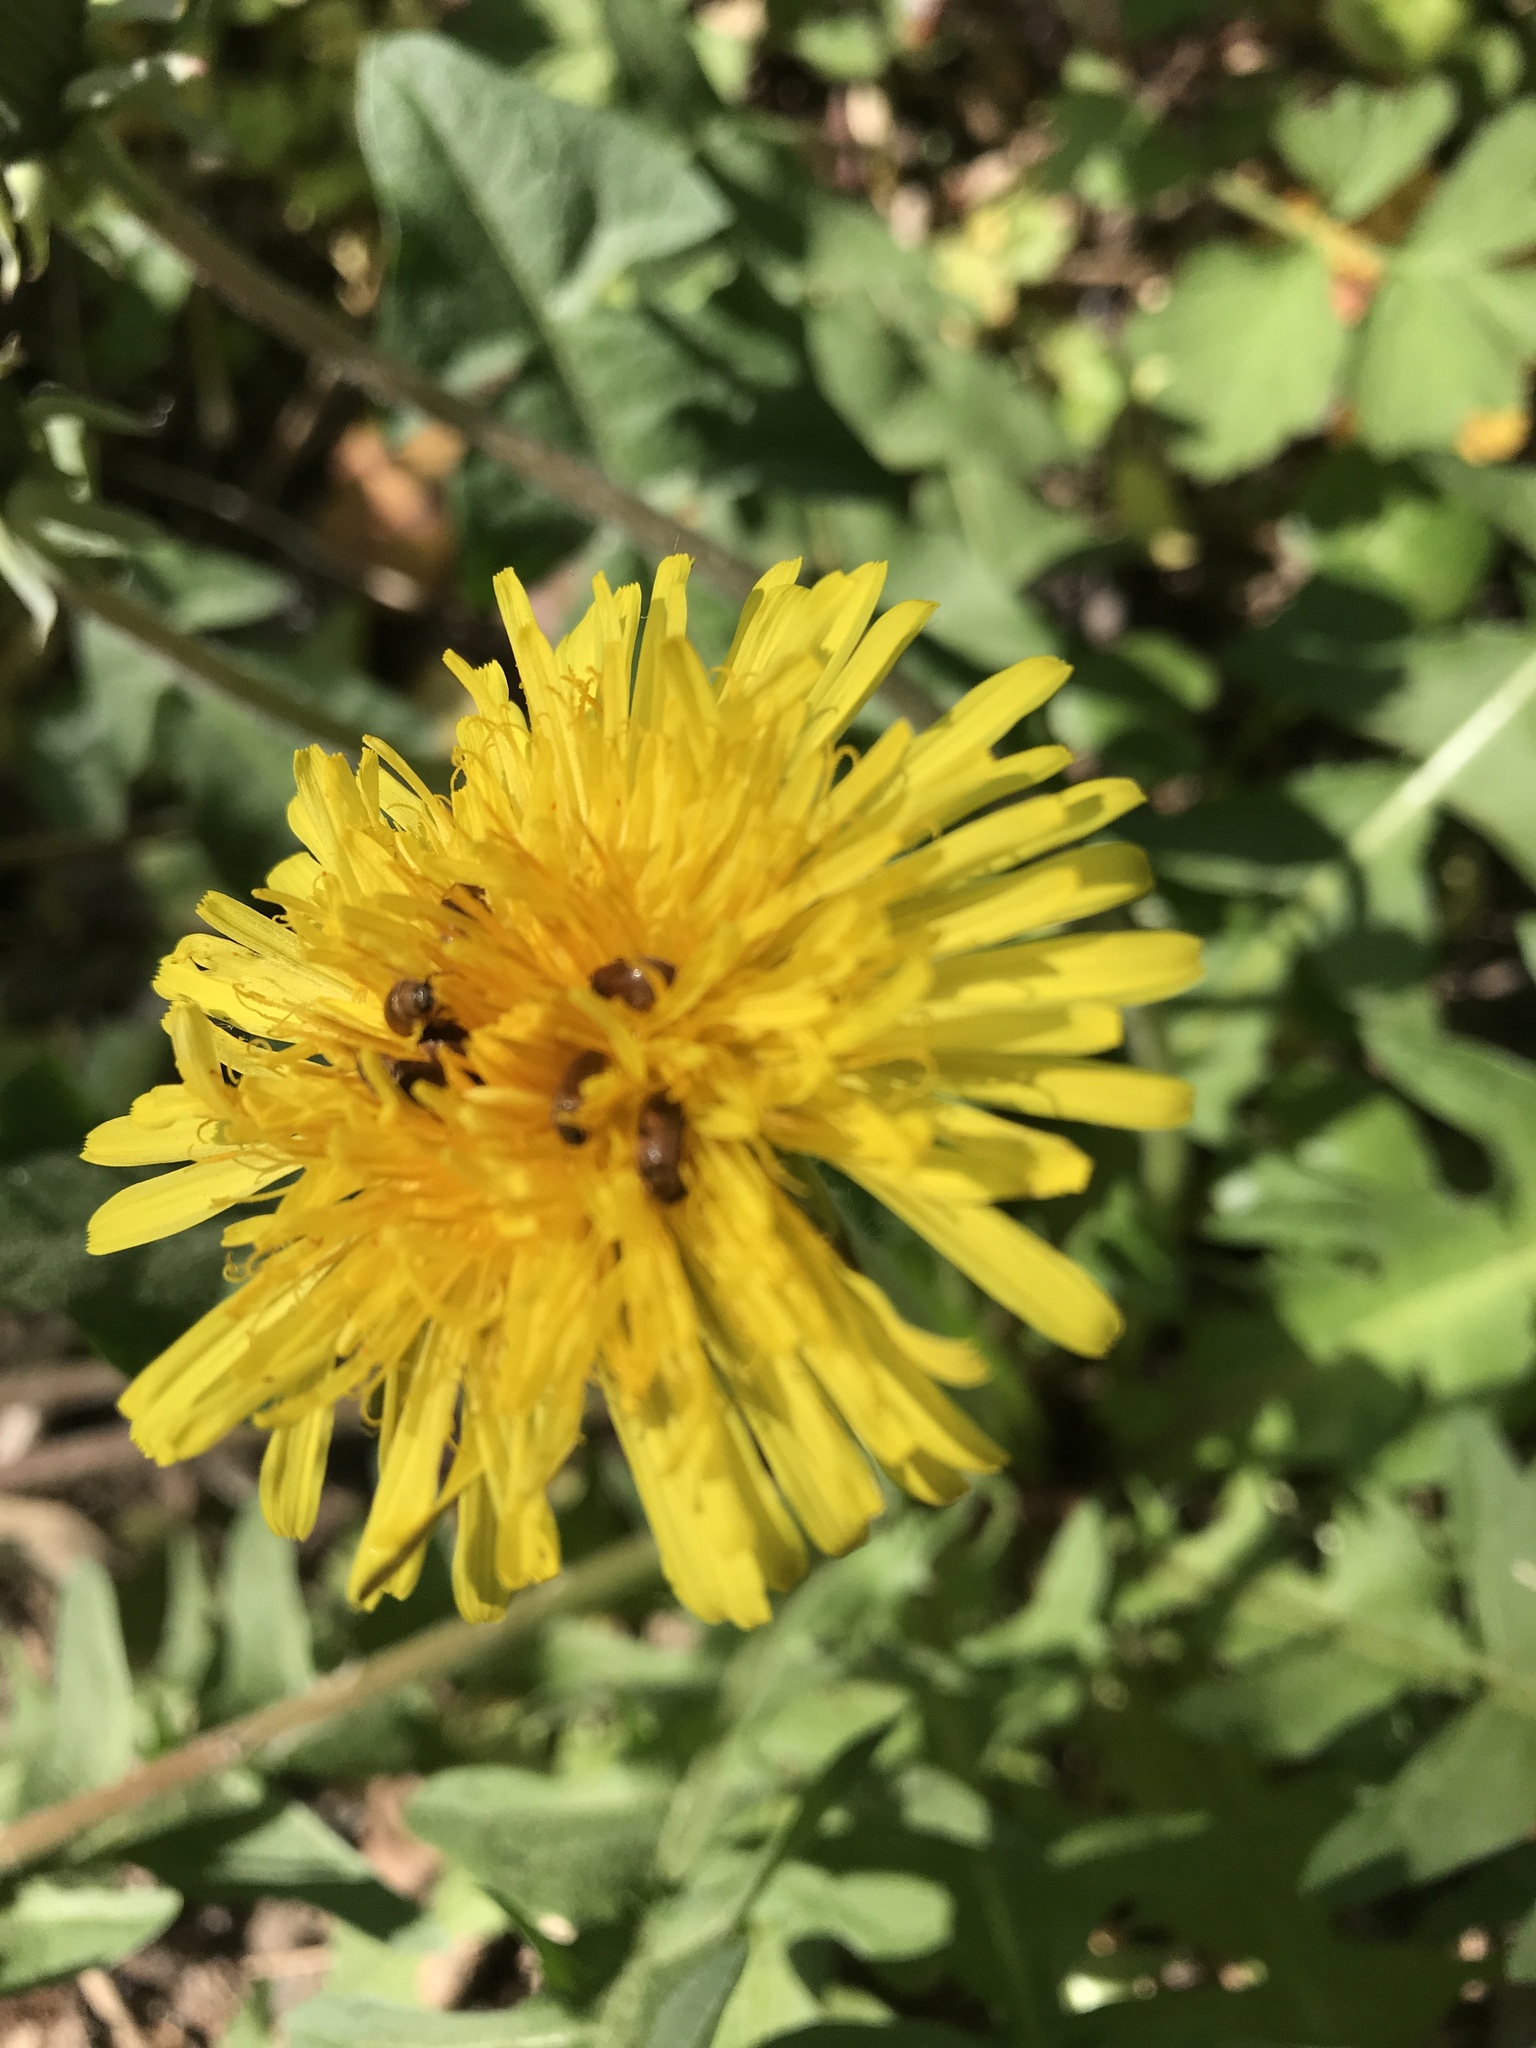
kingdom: Plantae
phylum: Tracheophyta
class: Magnoliopsida
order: Asterales
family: Asteraceae
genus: Taraxacum
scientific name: Taraxacum officinale
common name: Common dandelion
